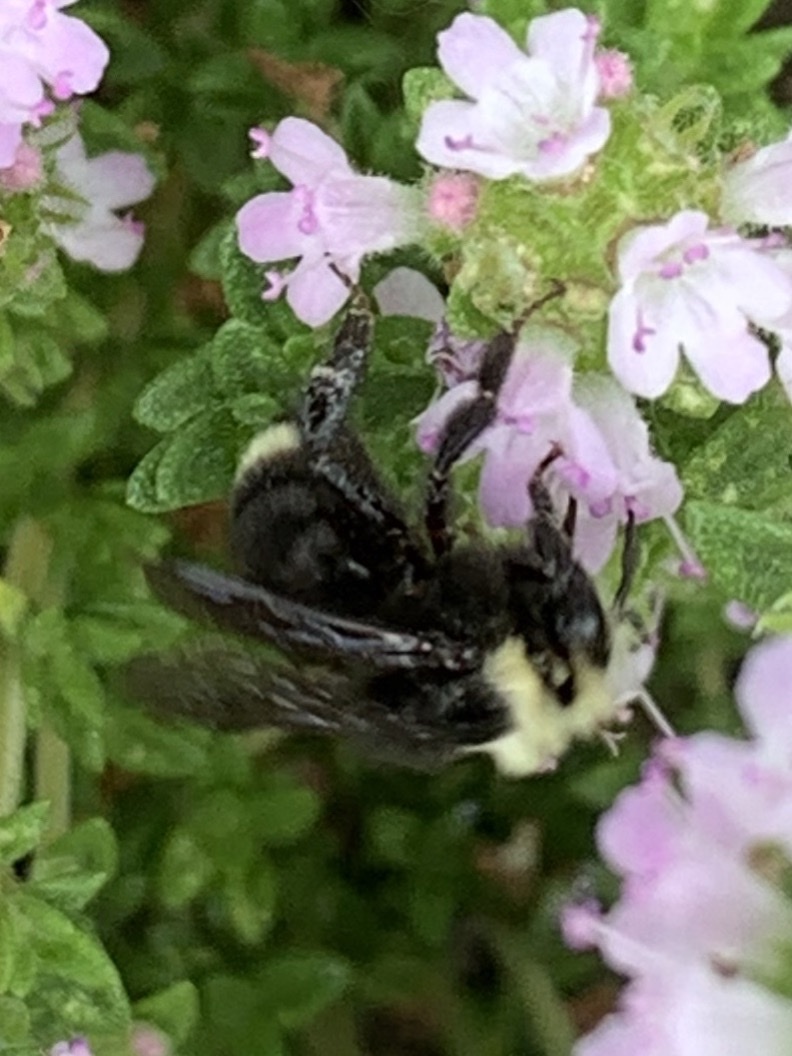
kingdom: Animalia
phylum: Arthropoda
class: Insecta
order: Hymenoptera
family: Apidae
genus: Bombus
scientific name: Bombus vosnesenskii
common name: Vosnesensky bumble bee
